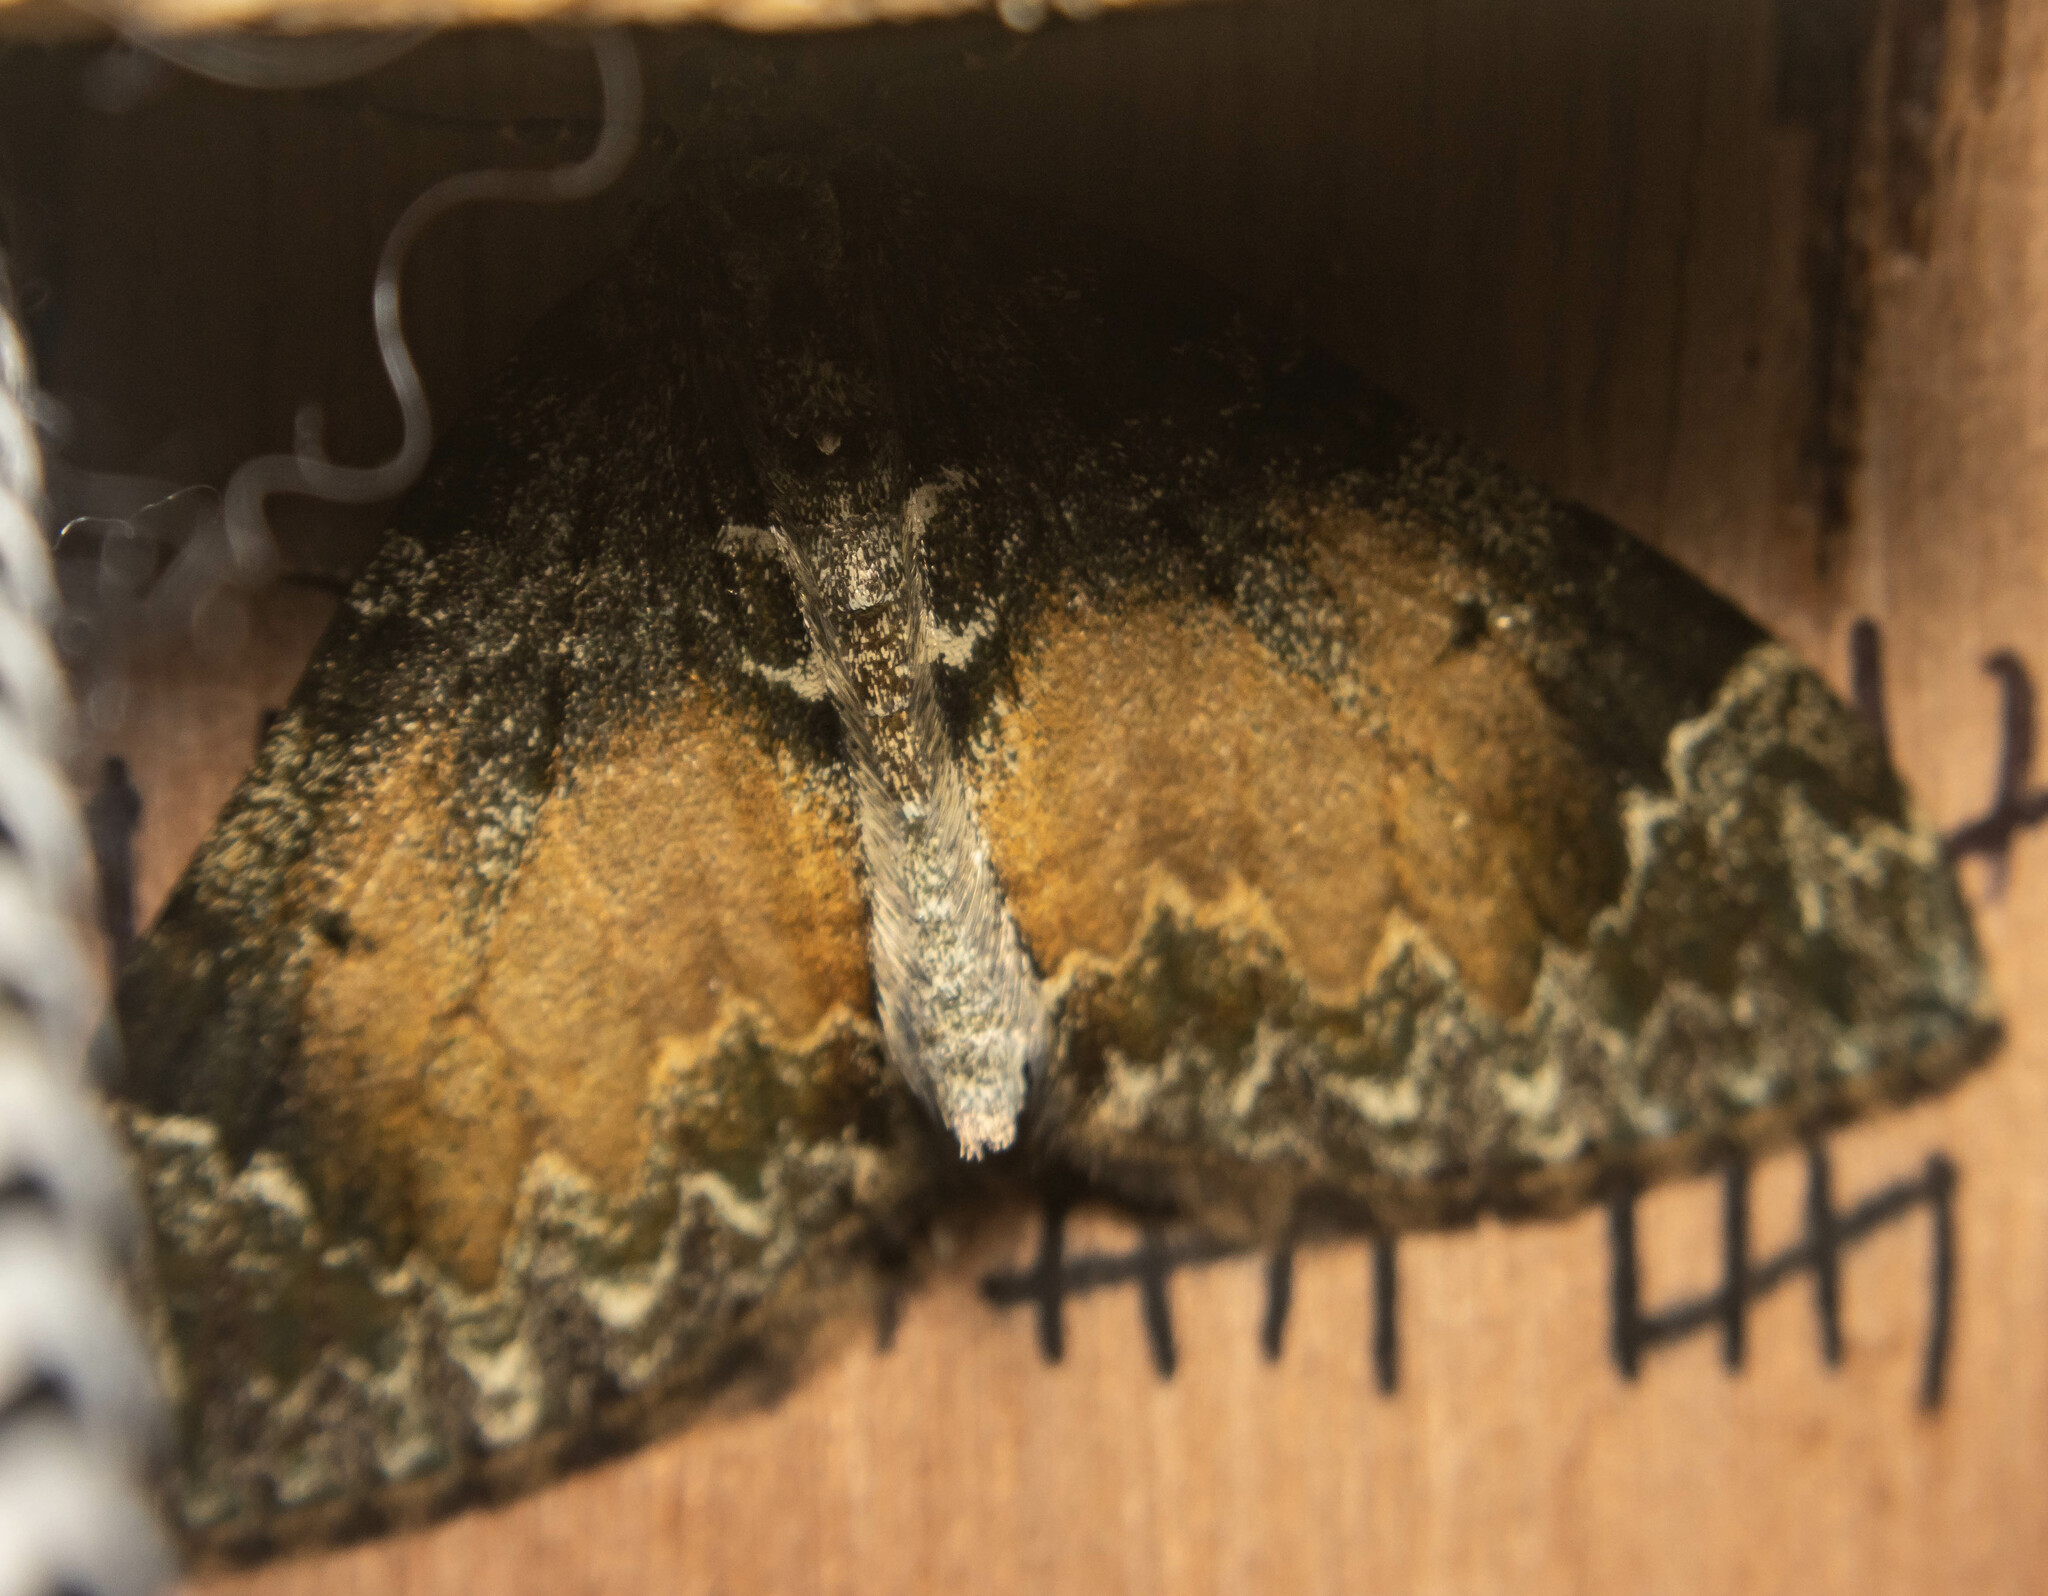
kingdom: Animalia
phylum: Arthropoda
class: Insecta
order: Lepidoptera
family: Geometridae
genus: Dysstroma
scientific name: Dysstroma truncata
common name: Common marbled carpet
